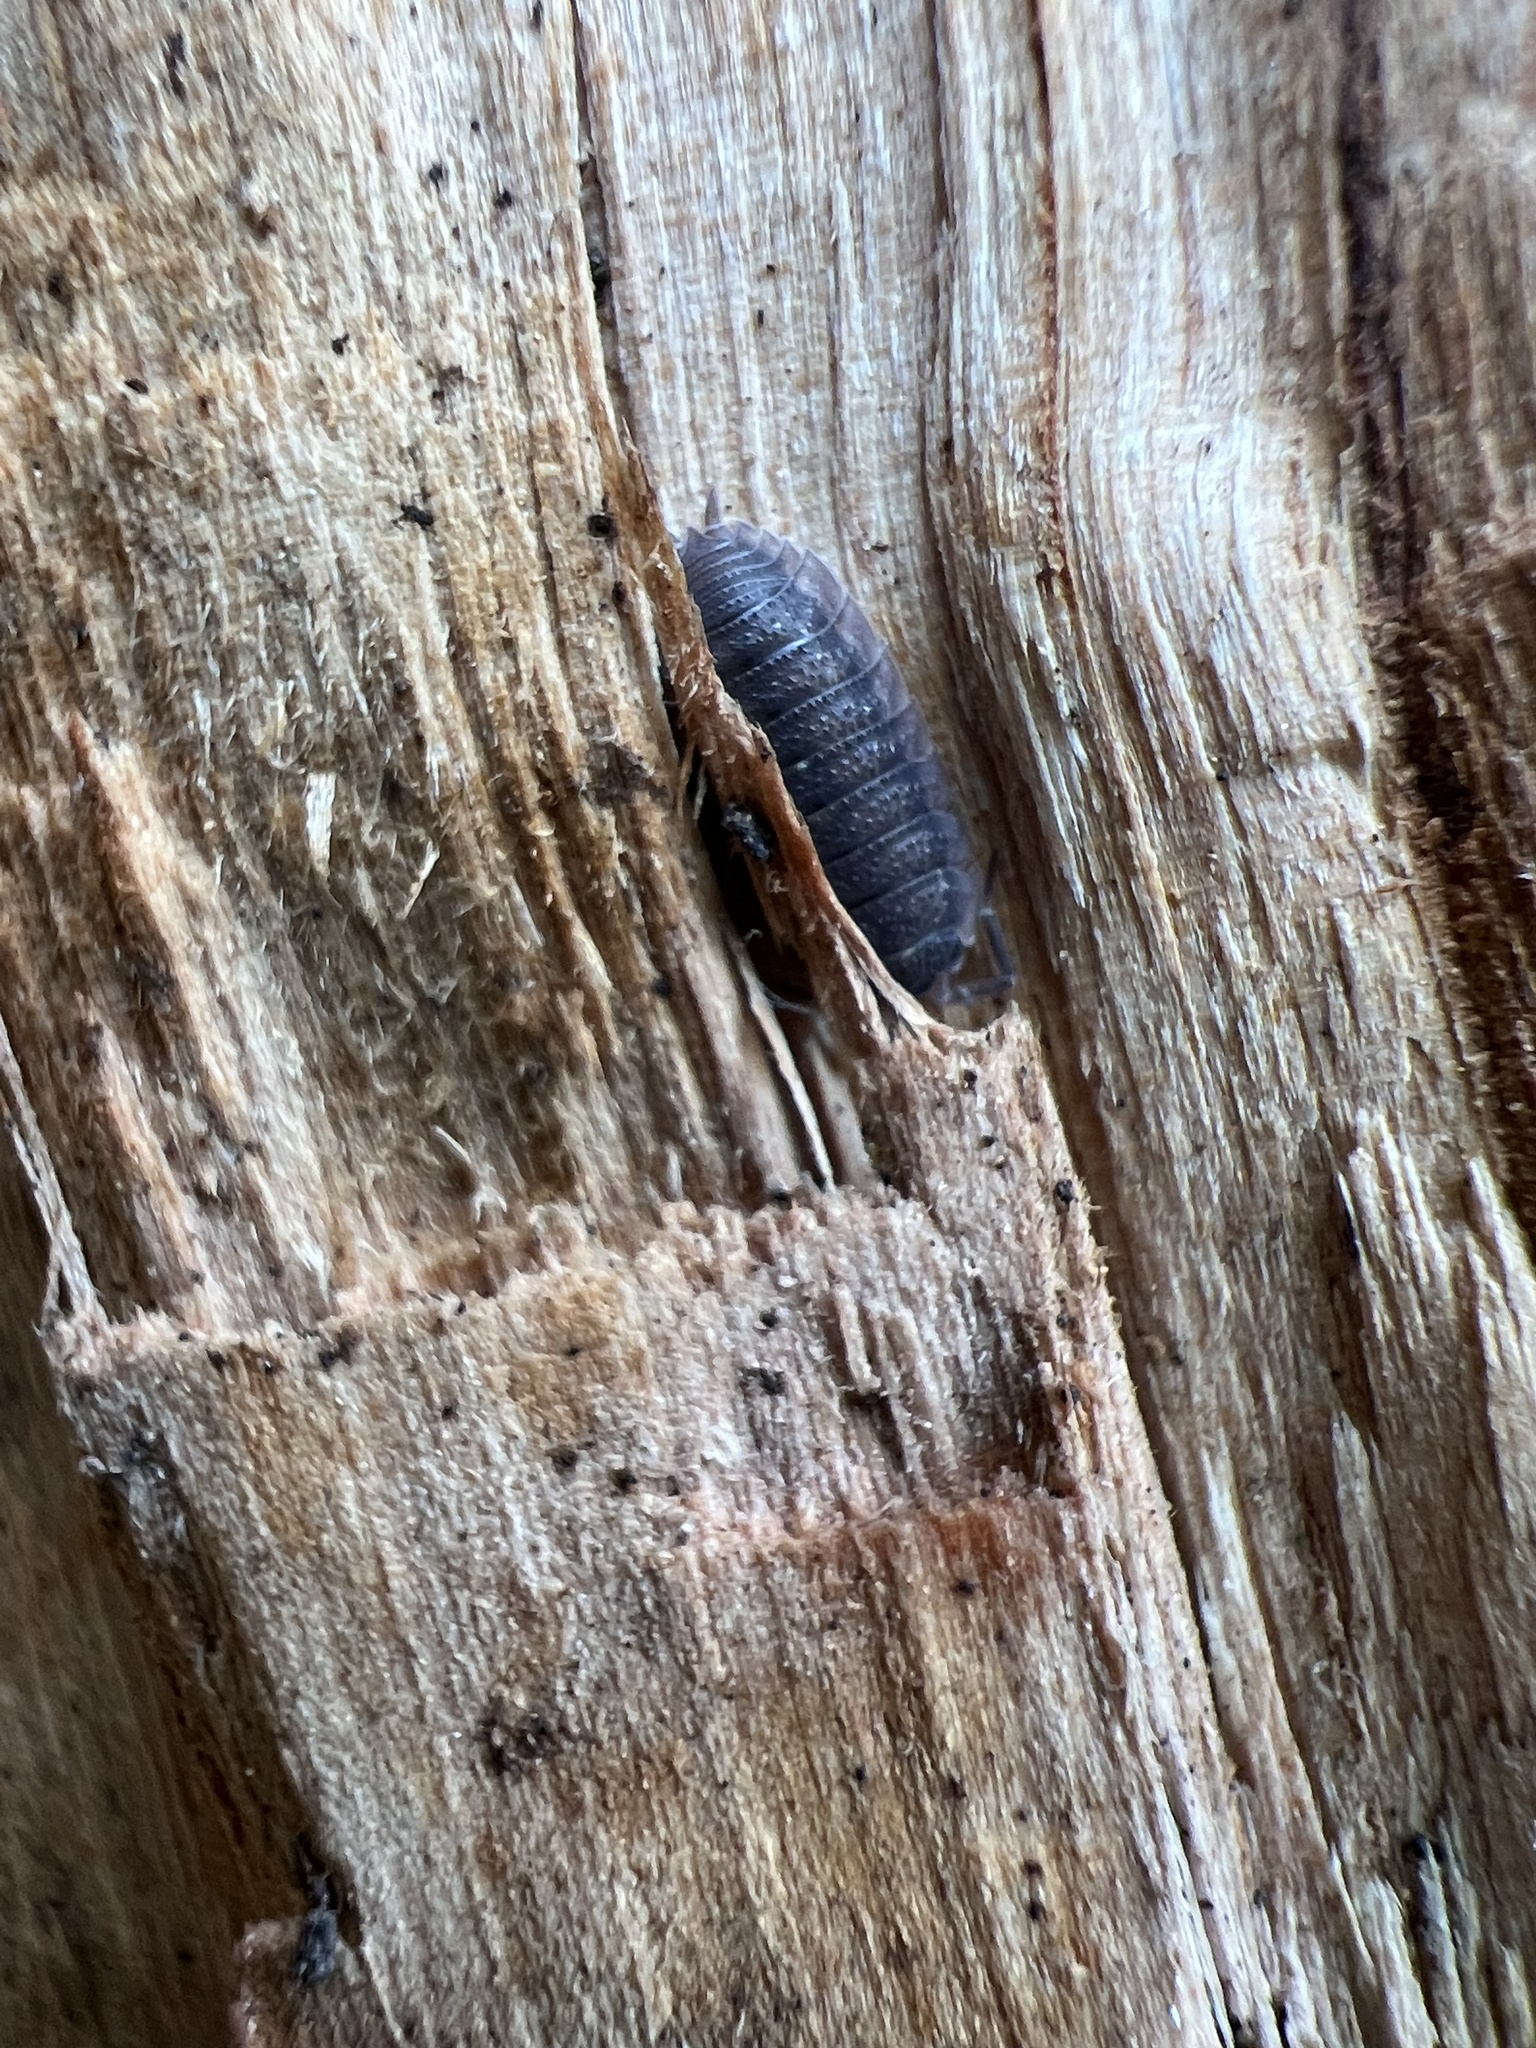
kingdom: Animalia
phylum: Arthropoda
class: Malacostraca
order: Isopoda
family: Porcellionidae
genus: Porcellio
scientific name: Porcellio scaber
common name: Common rough woodlouse
